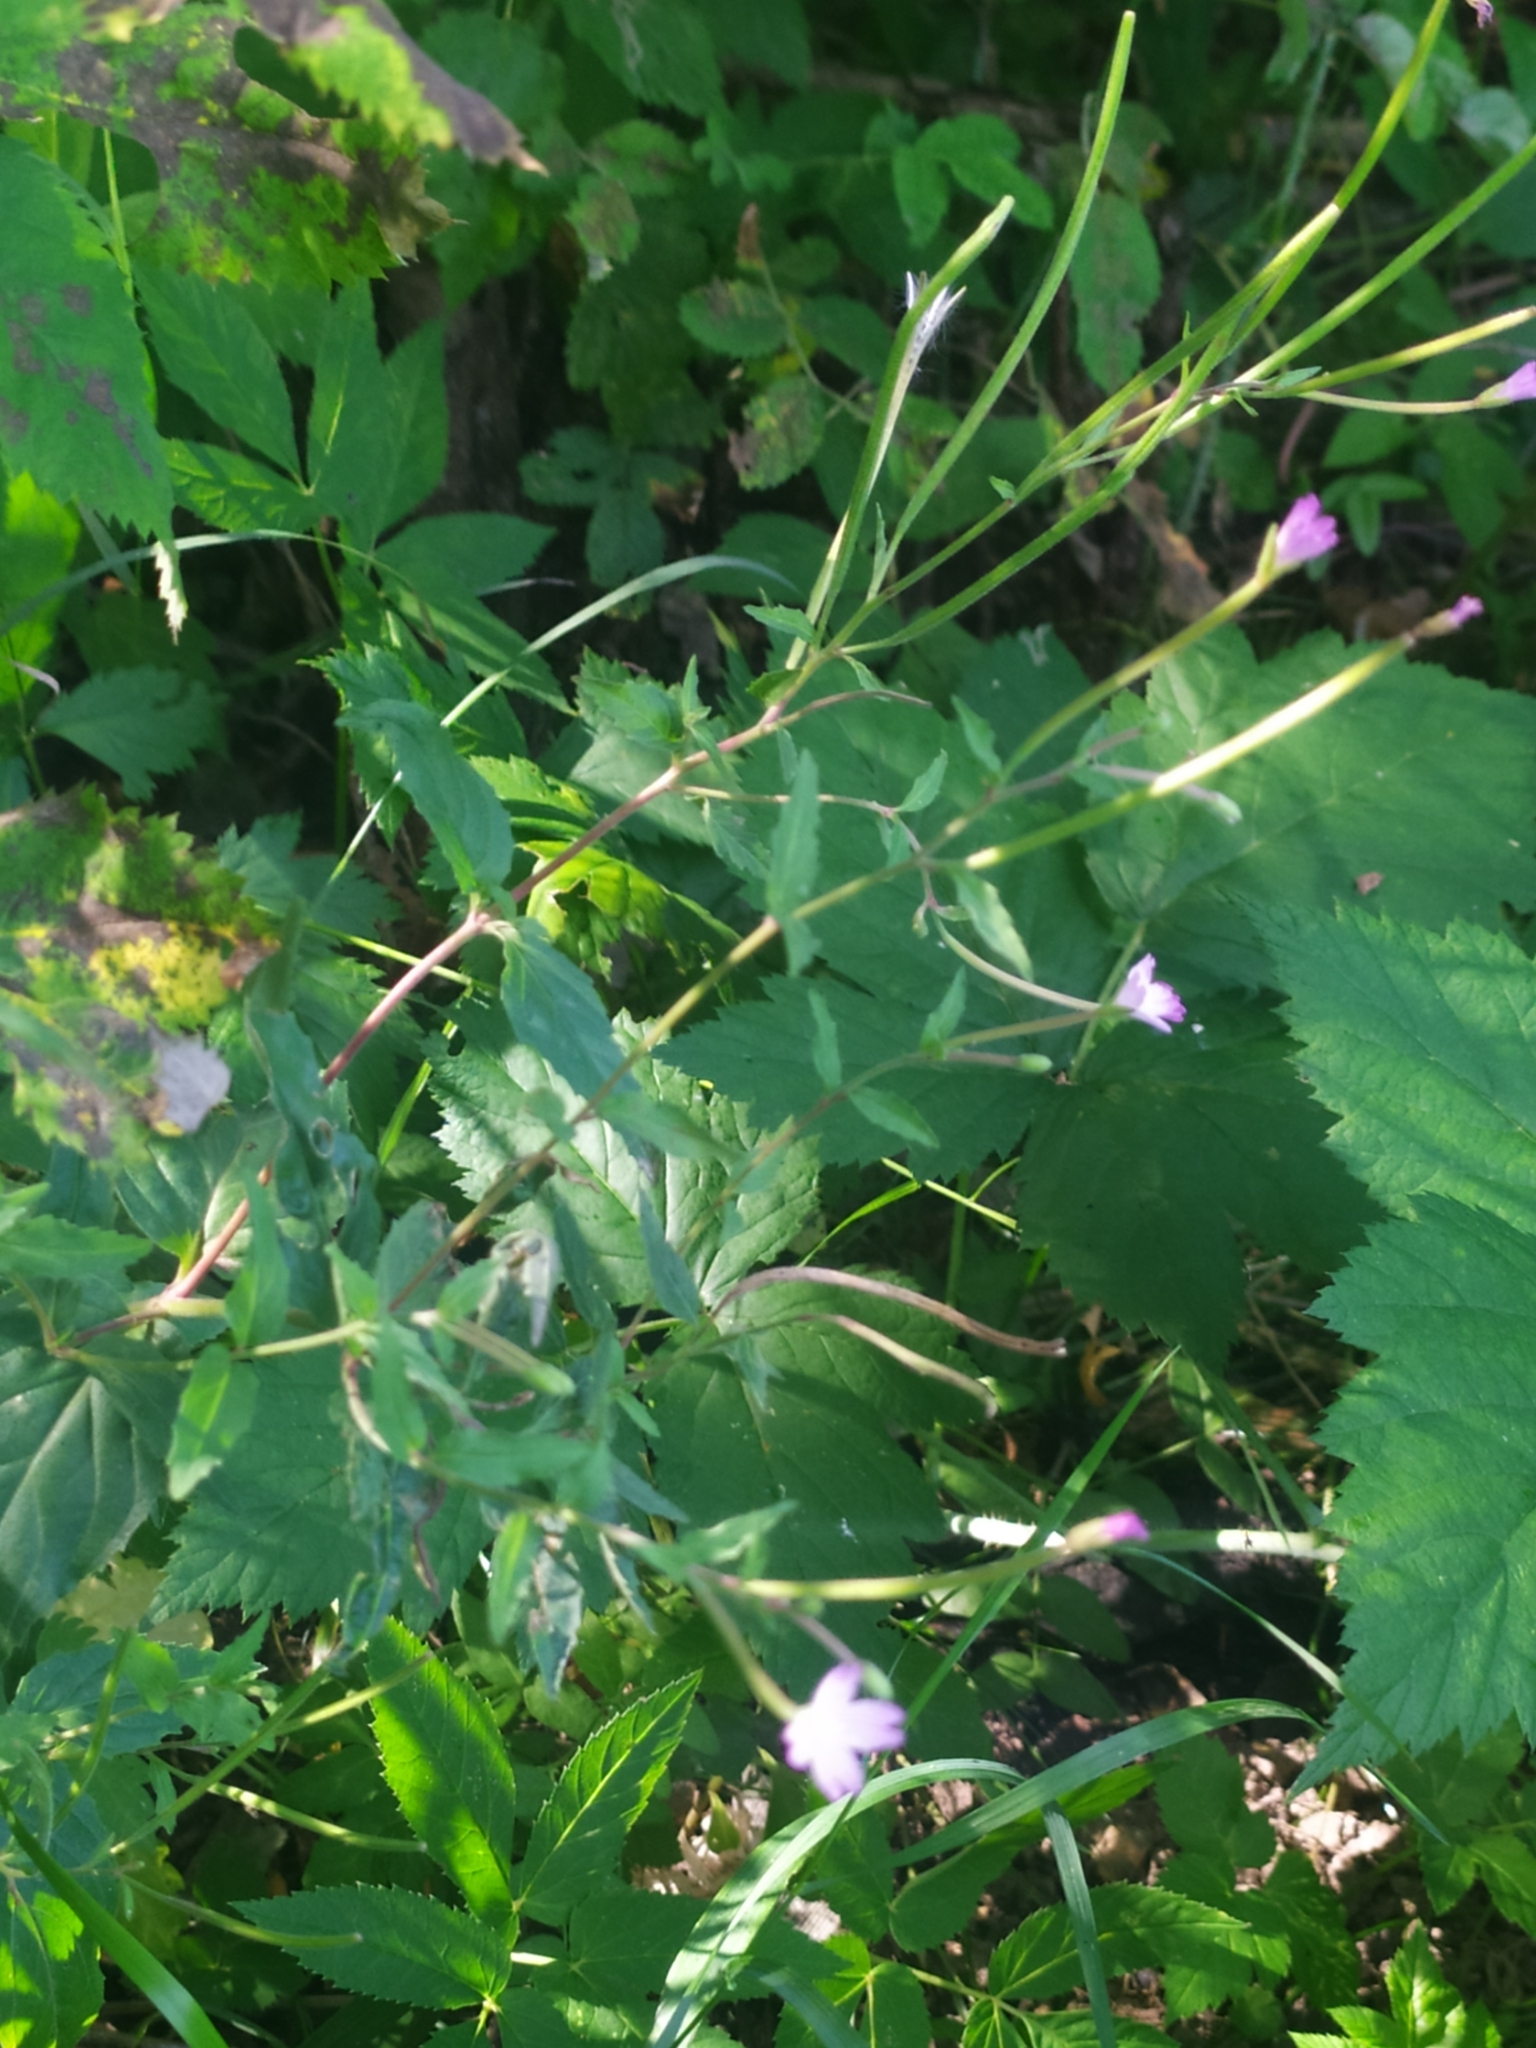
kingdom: Plantae
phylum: Tracheophyta
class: Magnoliopsida
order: Myrtales
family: Onagraceae
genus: Epilobium
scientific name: Epilobium montanum
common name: Broad-leaved willowherb
